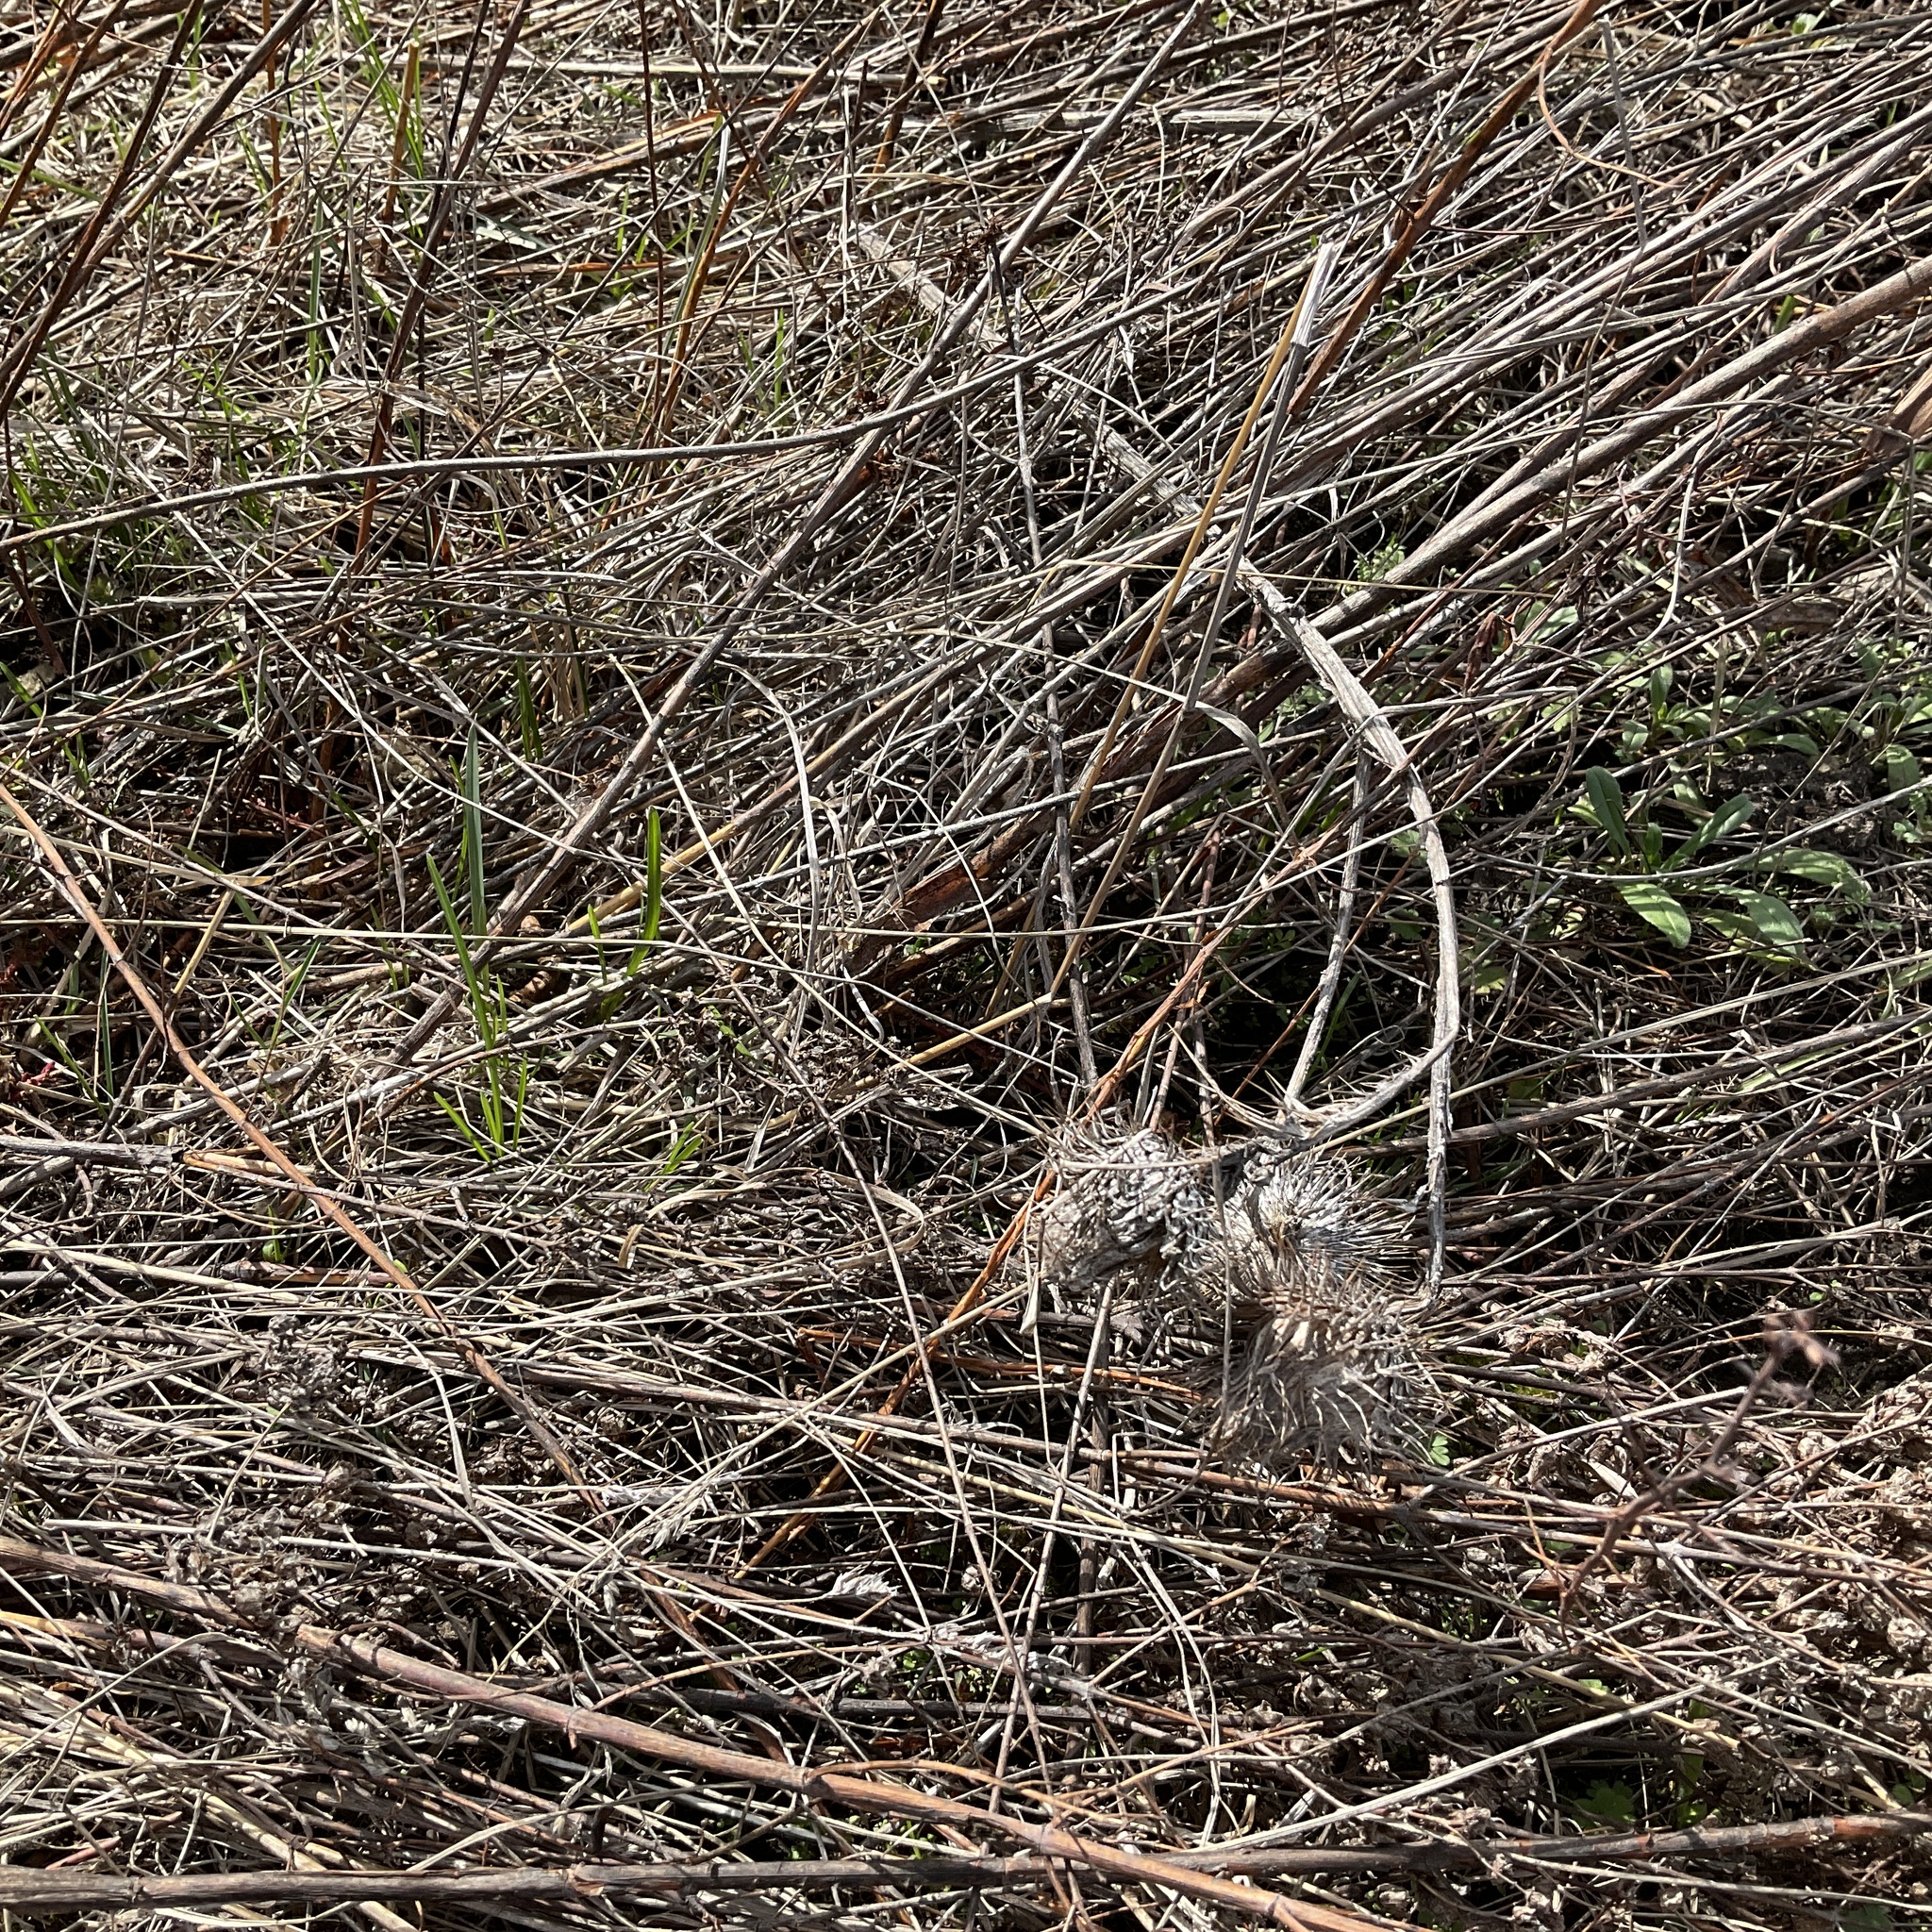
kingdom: Plantae
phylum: Tracheophyta
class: Magnoliopsida
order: Asterales
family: Asteraceae
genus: Cirsium
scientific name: Cirsium vulgare
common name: Bull thistle
